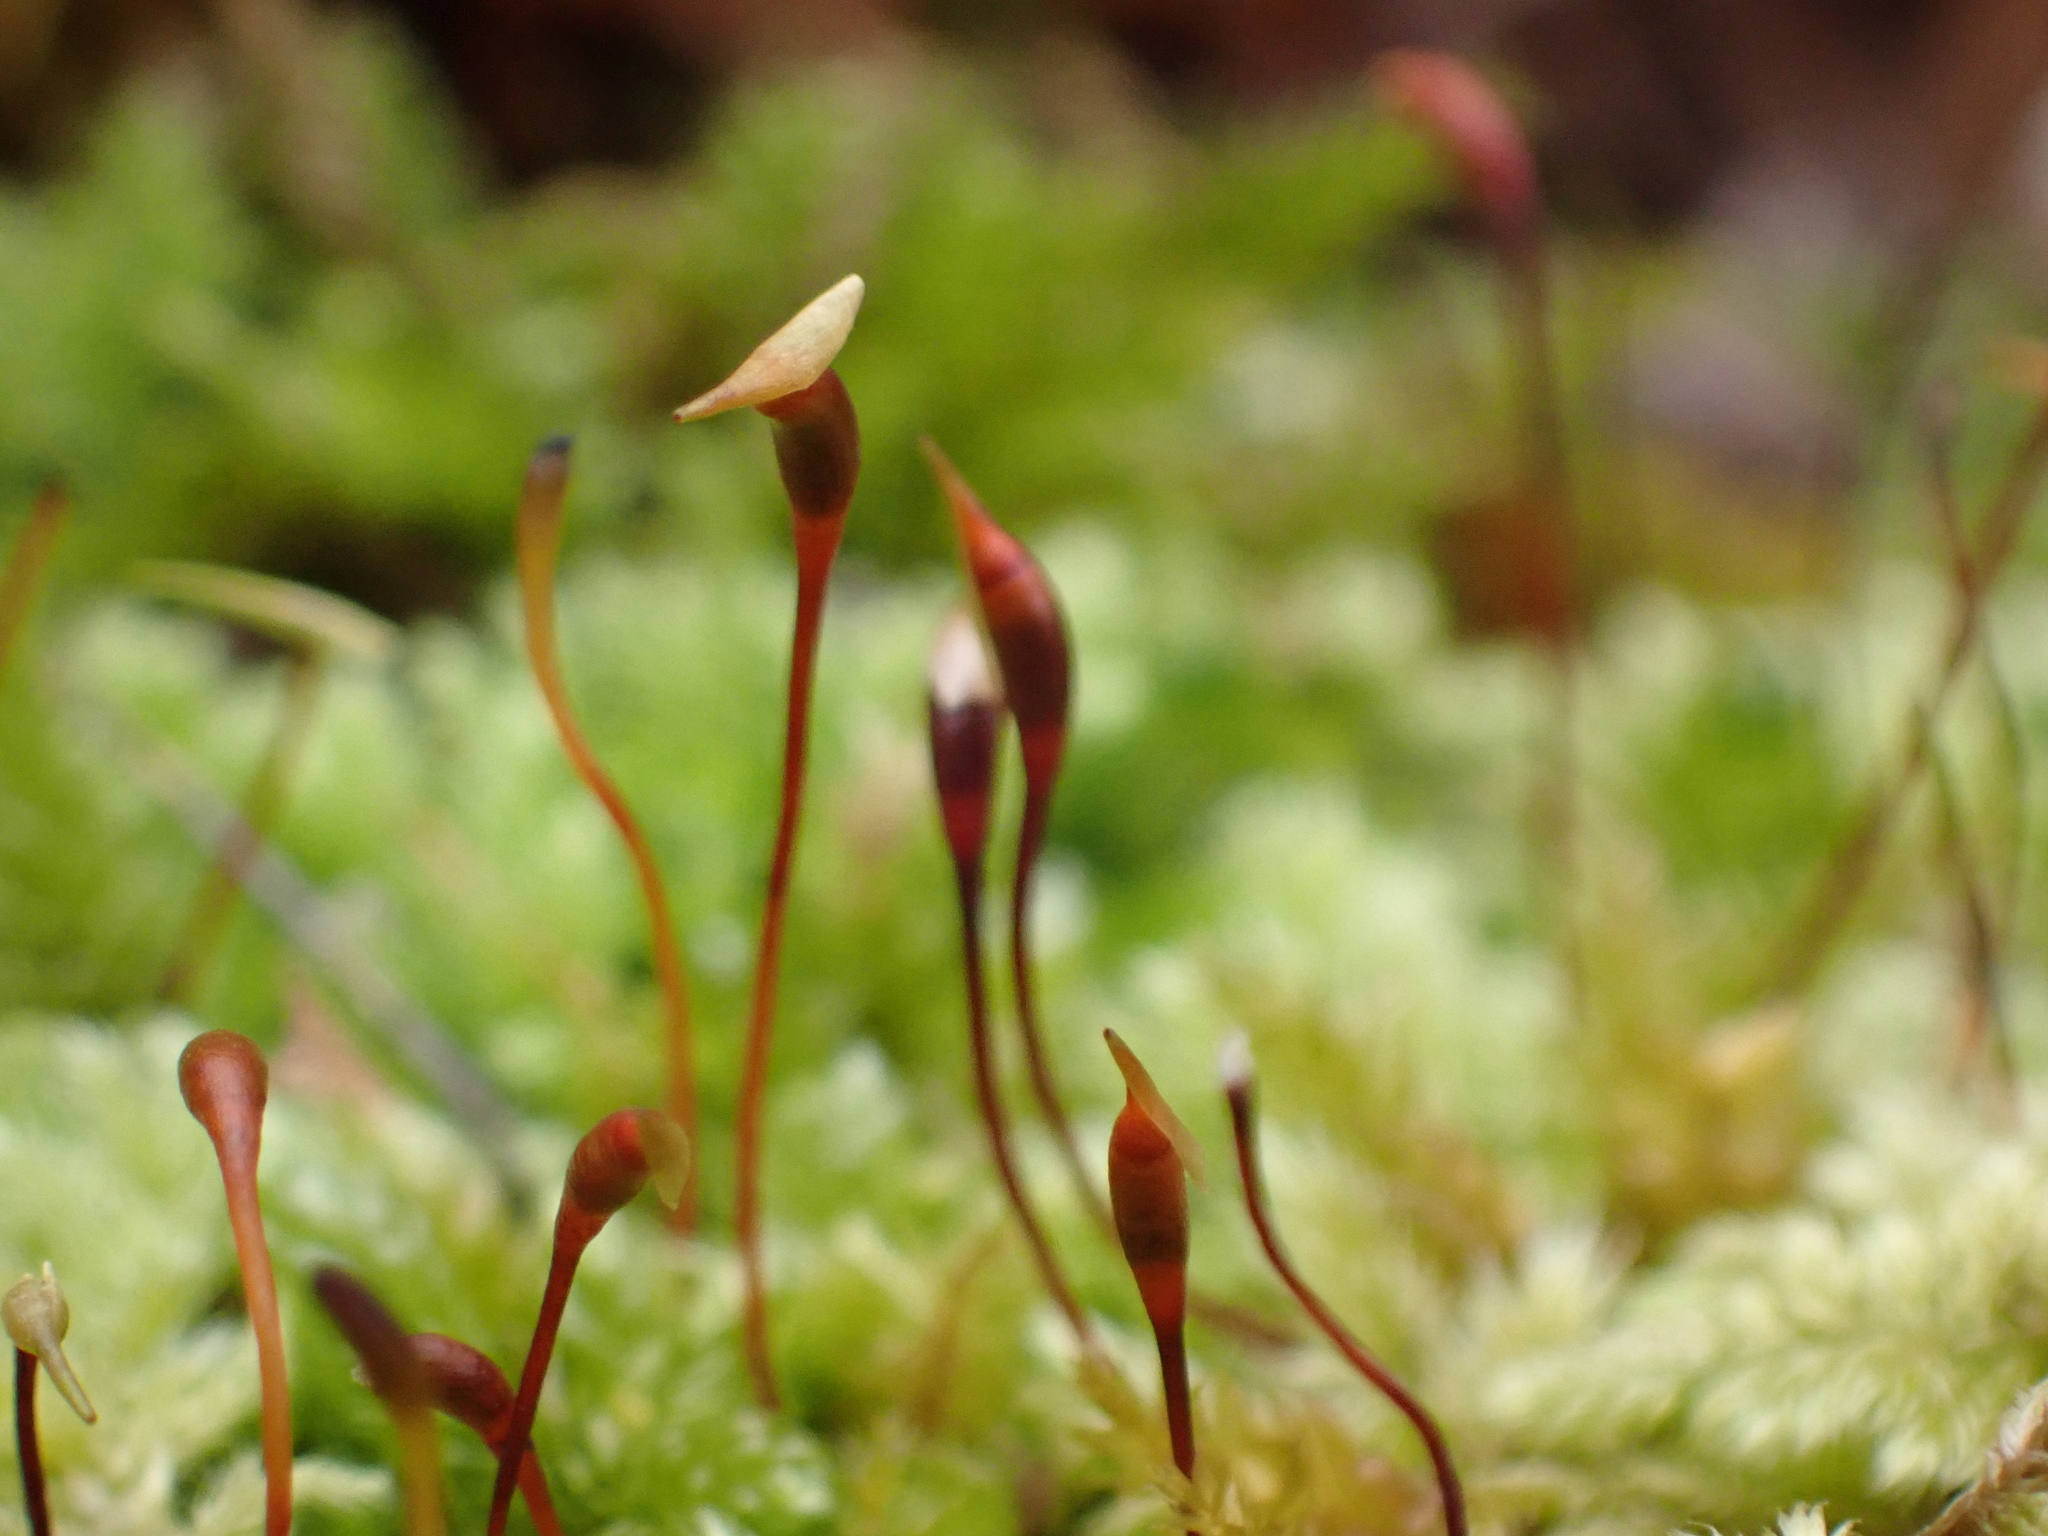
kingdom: Plantae
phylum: Bryophyta
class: Bryopsida
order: Hypnales
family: Myuriaceae
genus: Ctenidium
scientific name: Ctenidium molluscum
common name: Chalk comb-moss
